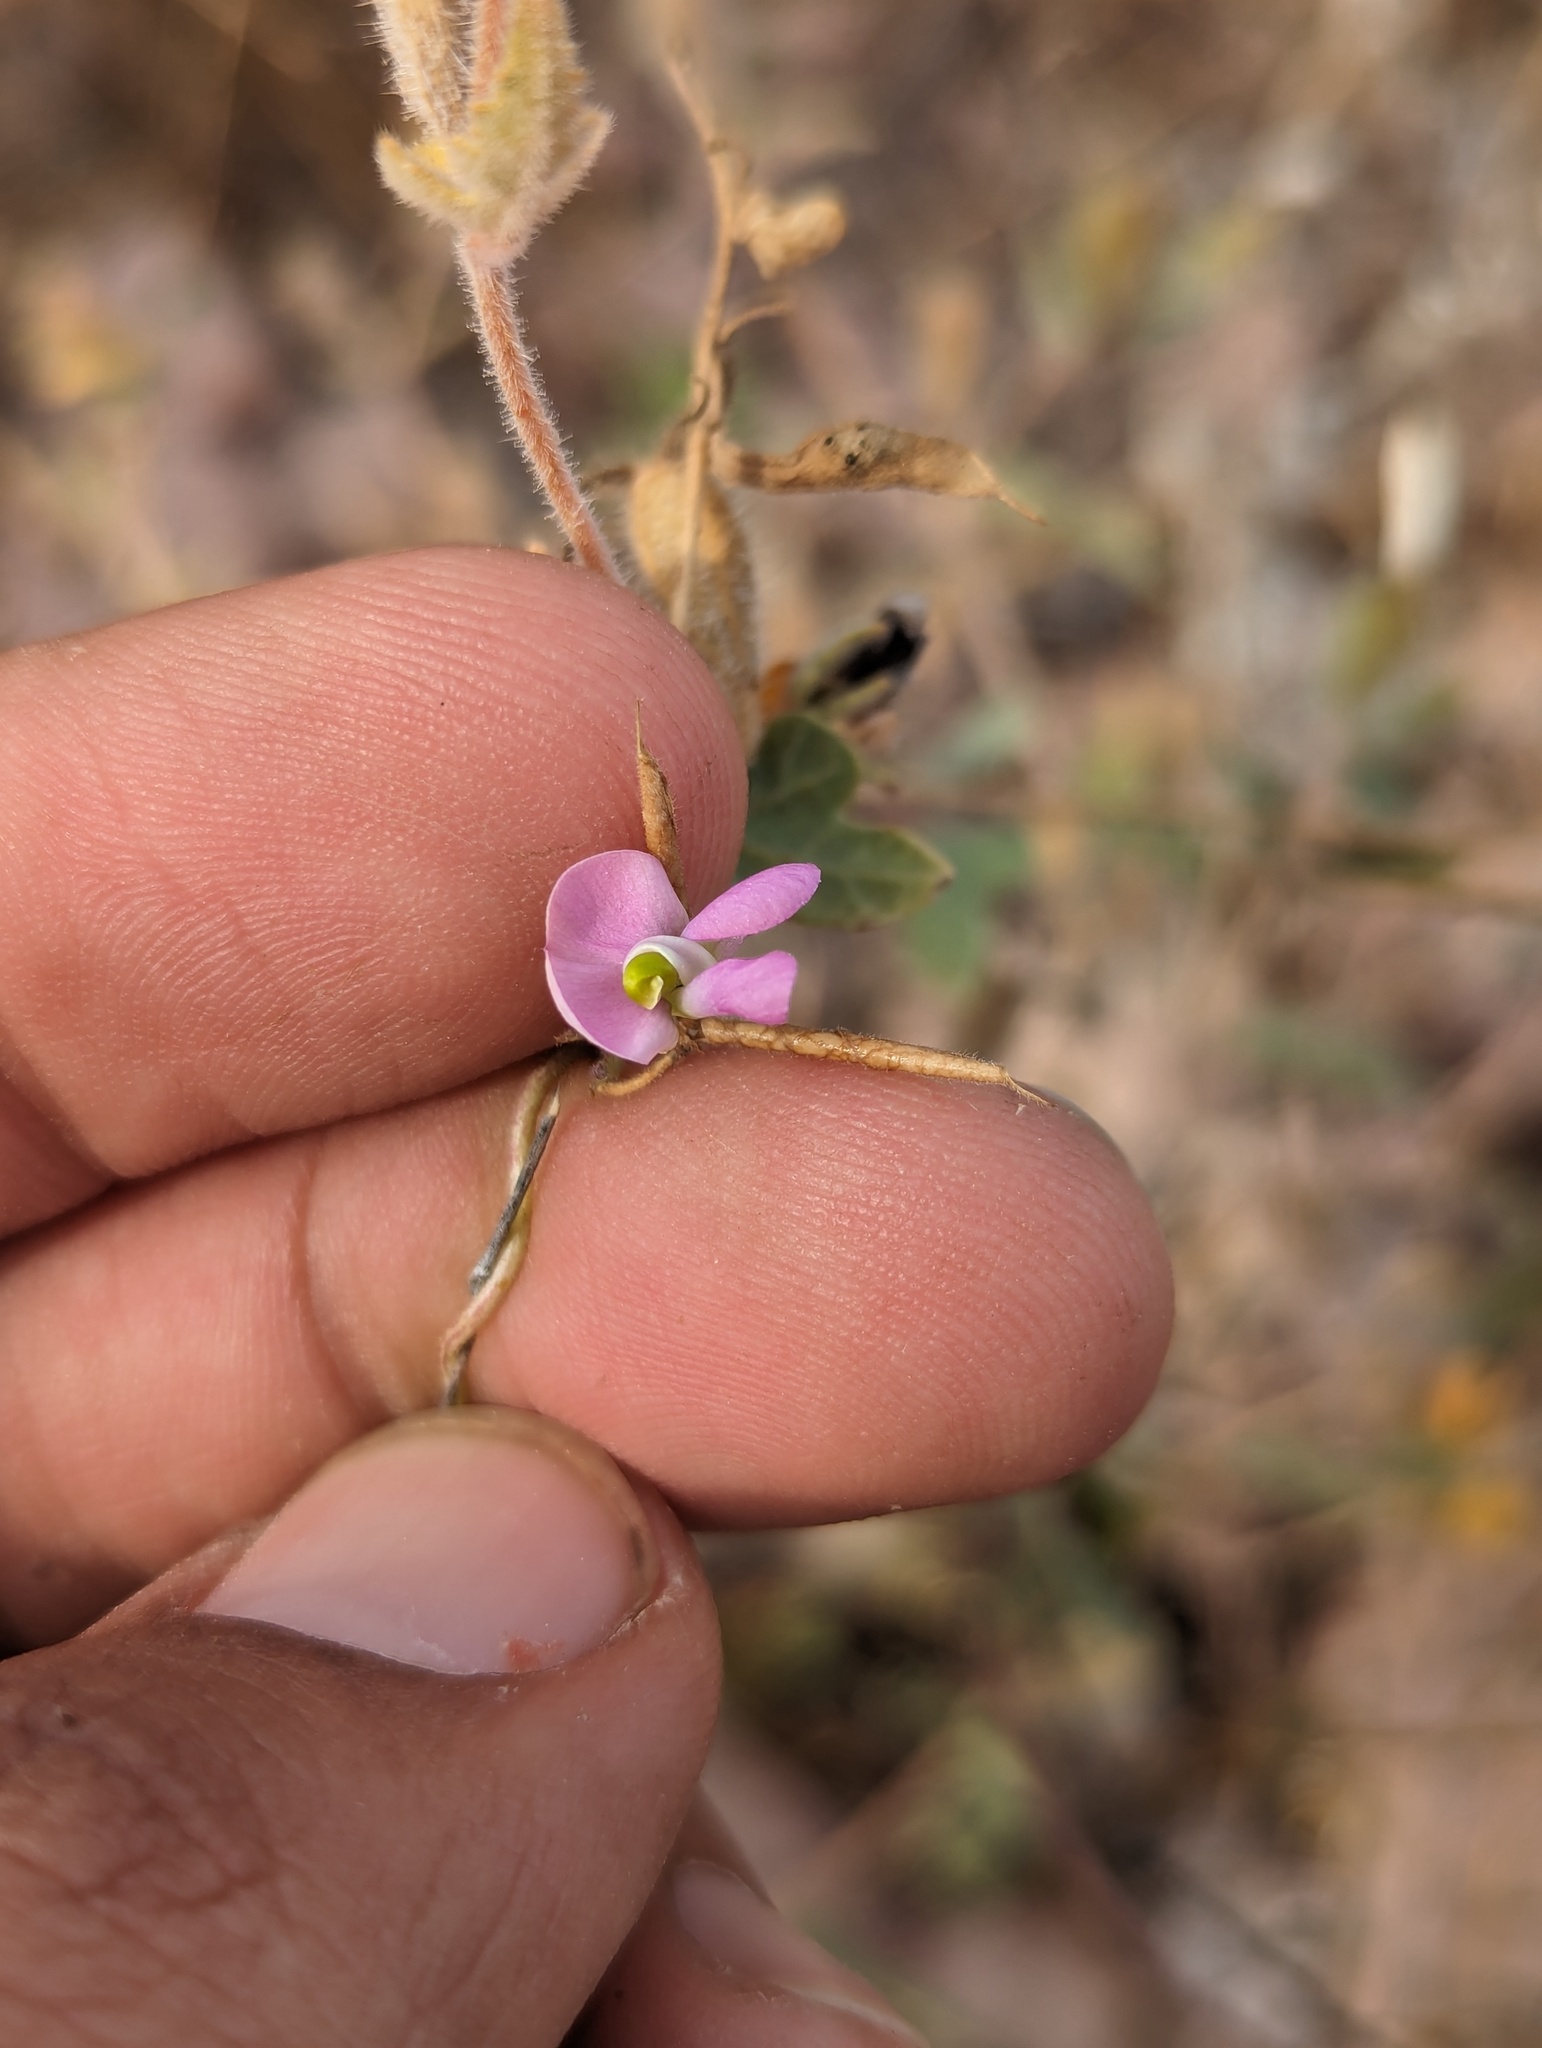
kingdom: Plantae
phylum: Tracheophyta
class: Magnoliopsida
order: Fabales
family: Fabaceae
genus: Phaseolus
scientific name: Phaseolus filiformis
